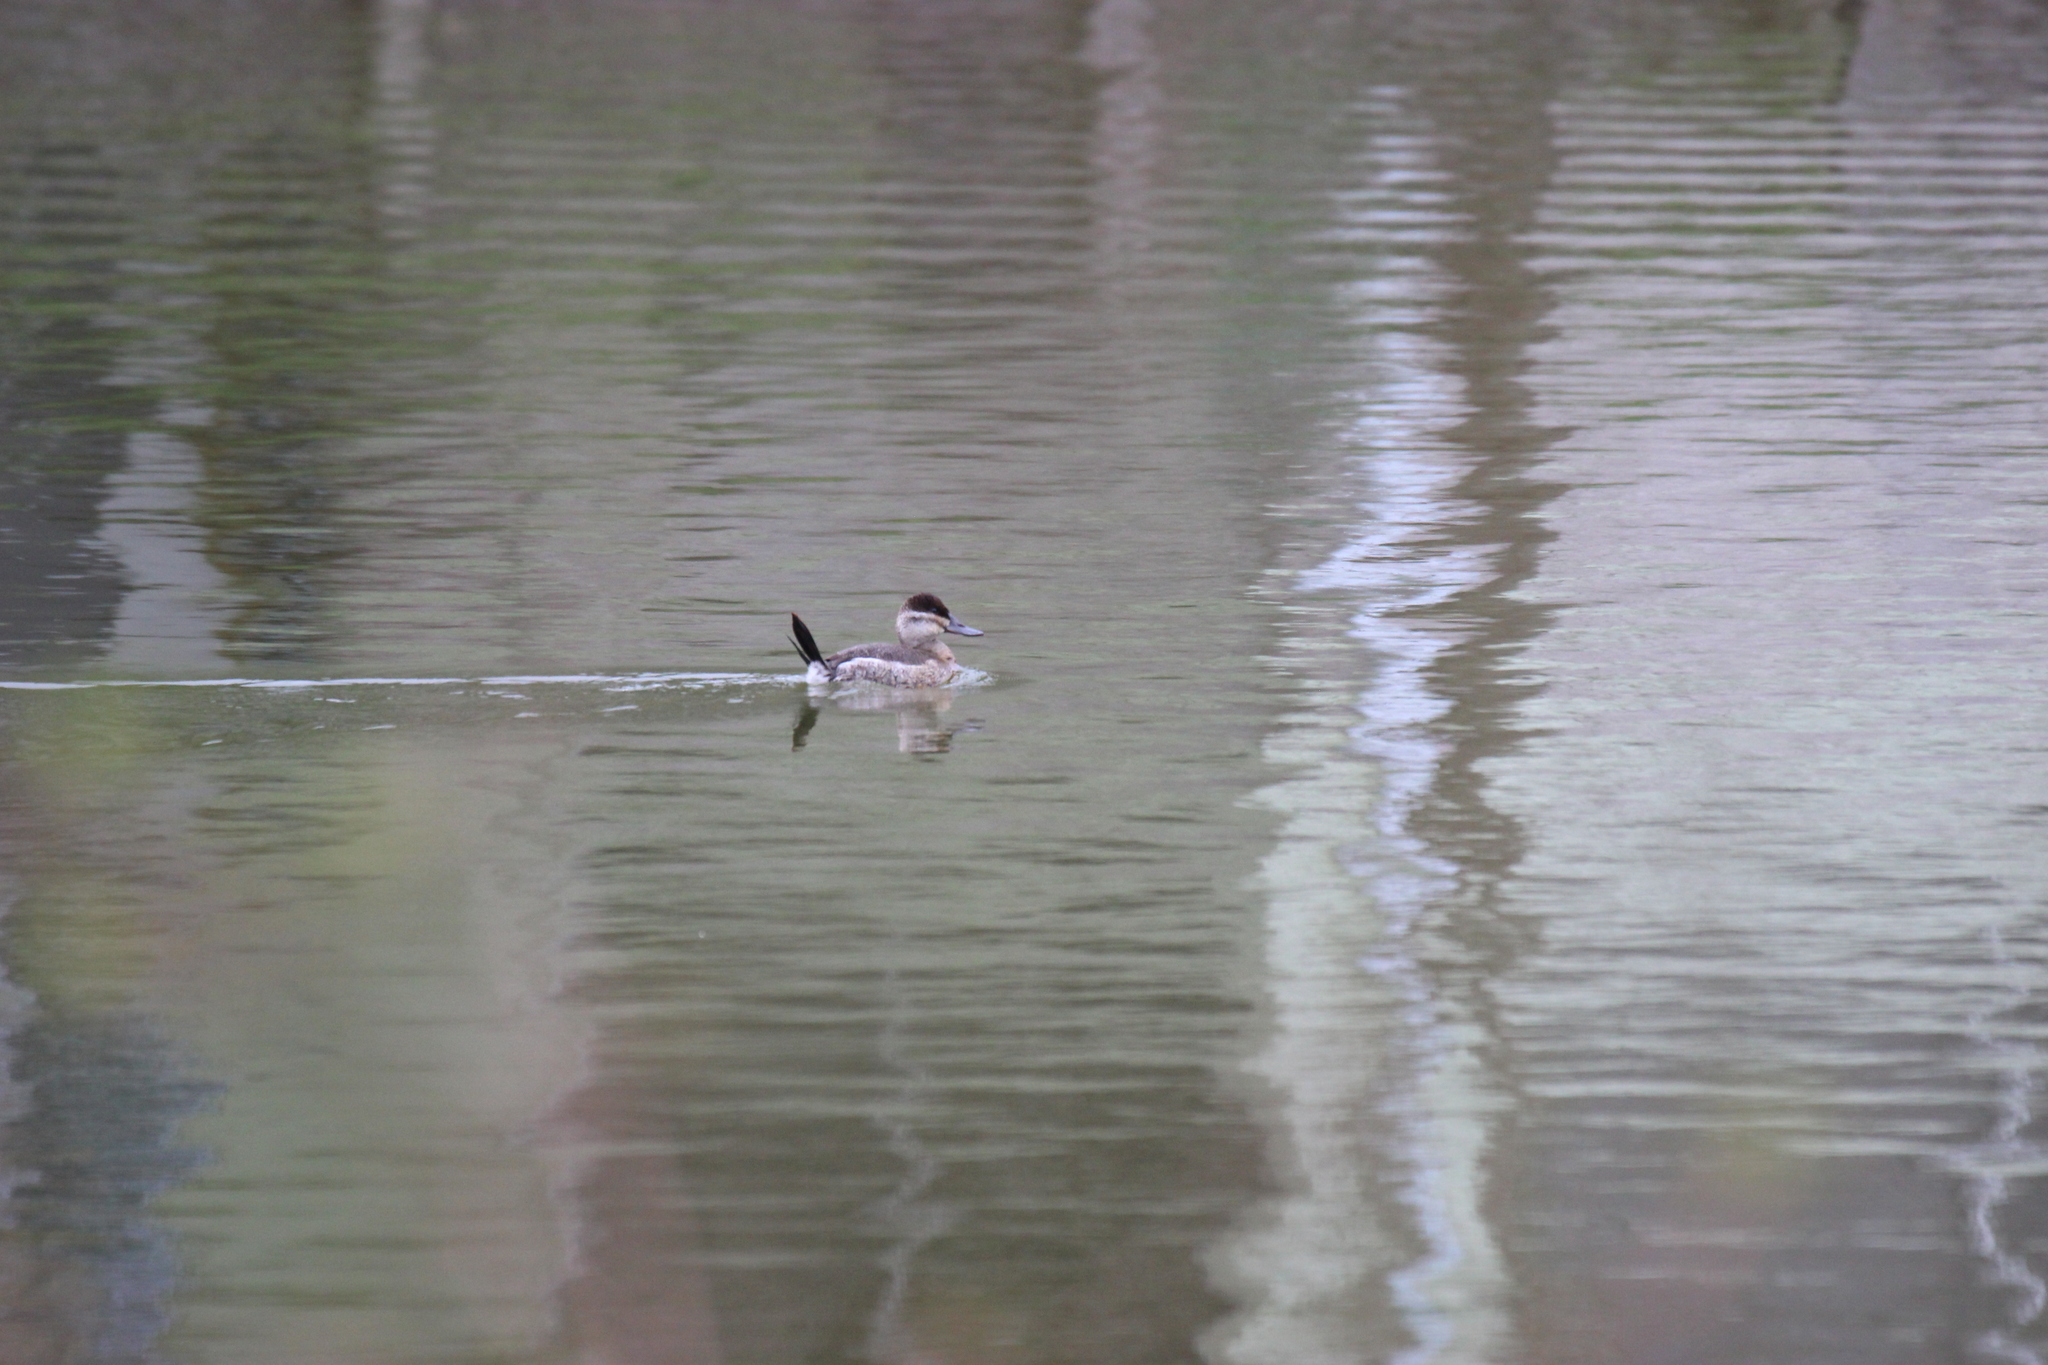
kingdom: Animalia
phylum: Chordata
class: Aves
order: Anseriformes
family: Anatidae
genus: Oxyura
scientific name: Oxyura jamaicensis
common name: Ruddy duck
